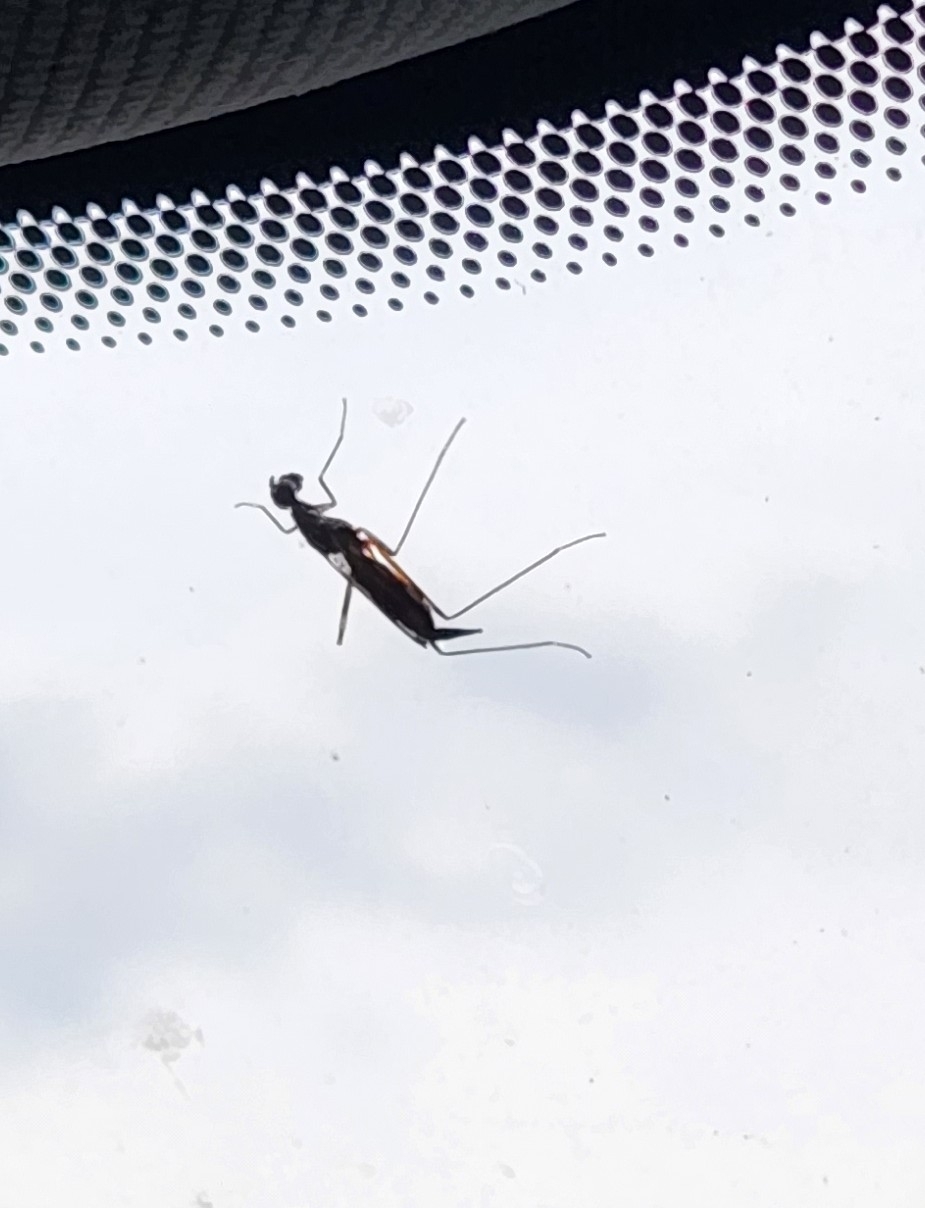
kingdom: Animalia
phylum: Arthropoda
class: Insecta
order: Diptera
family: Micropezidae
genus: Rainieria
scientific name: Rainieria antennaepes
